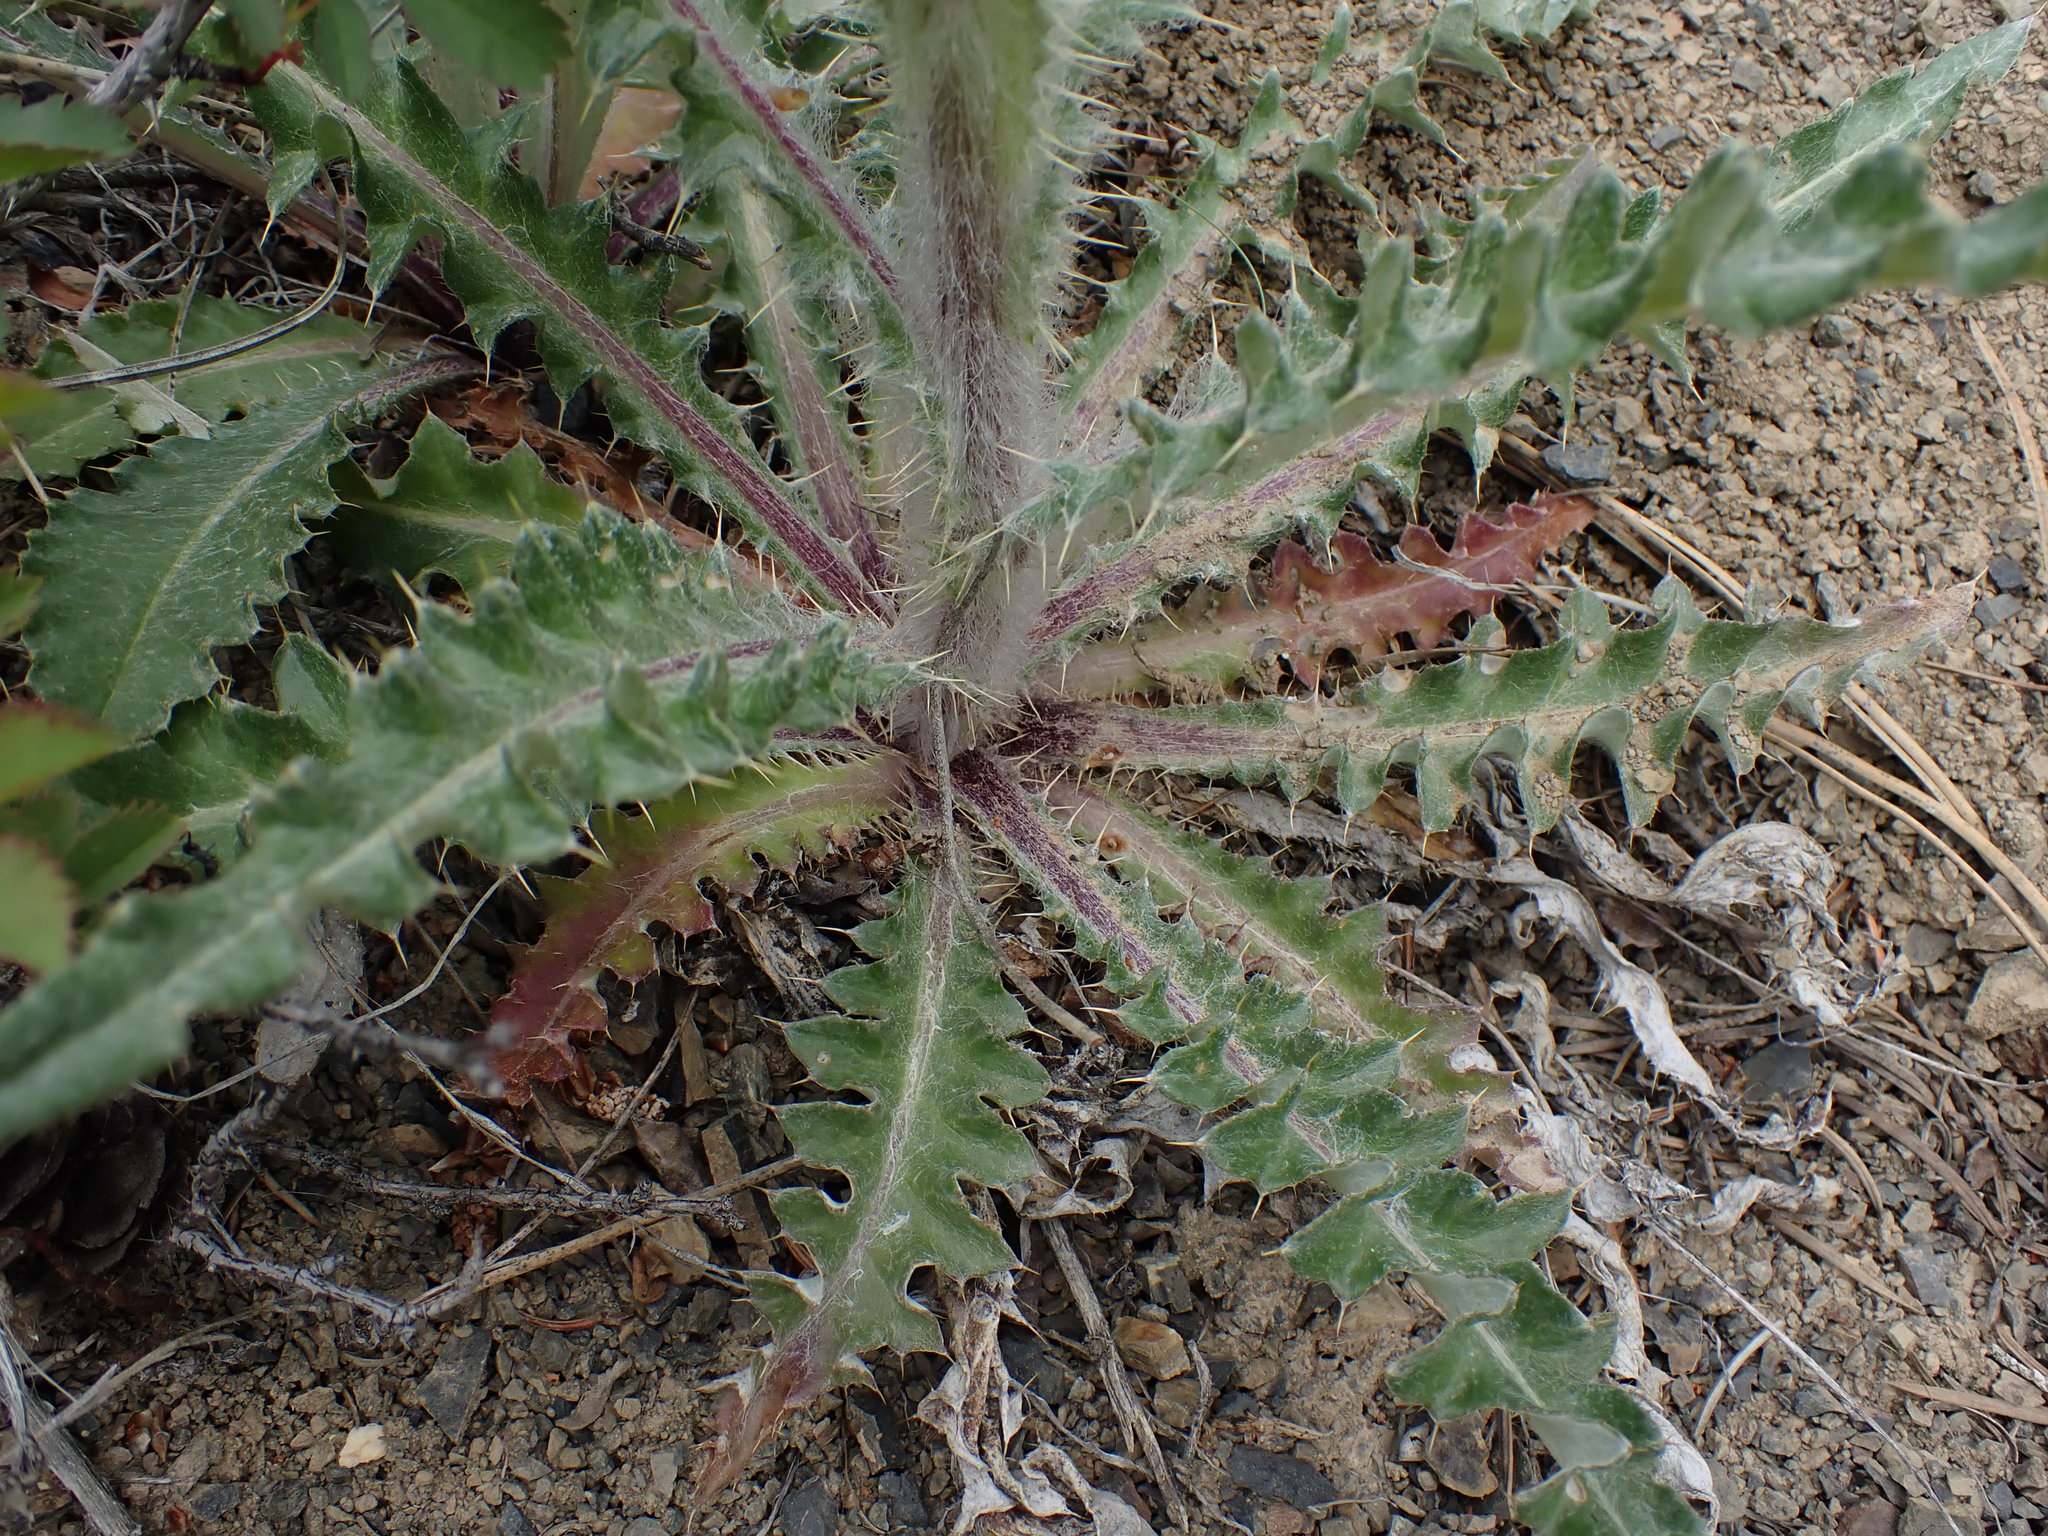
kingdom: Plantae
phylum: Tracheophyta
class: Magnoliopsida
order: Asterales
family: Asteraceae
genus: Cirsium
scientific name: Cirsium hookerianum
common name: Hooker's thistle
